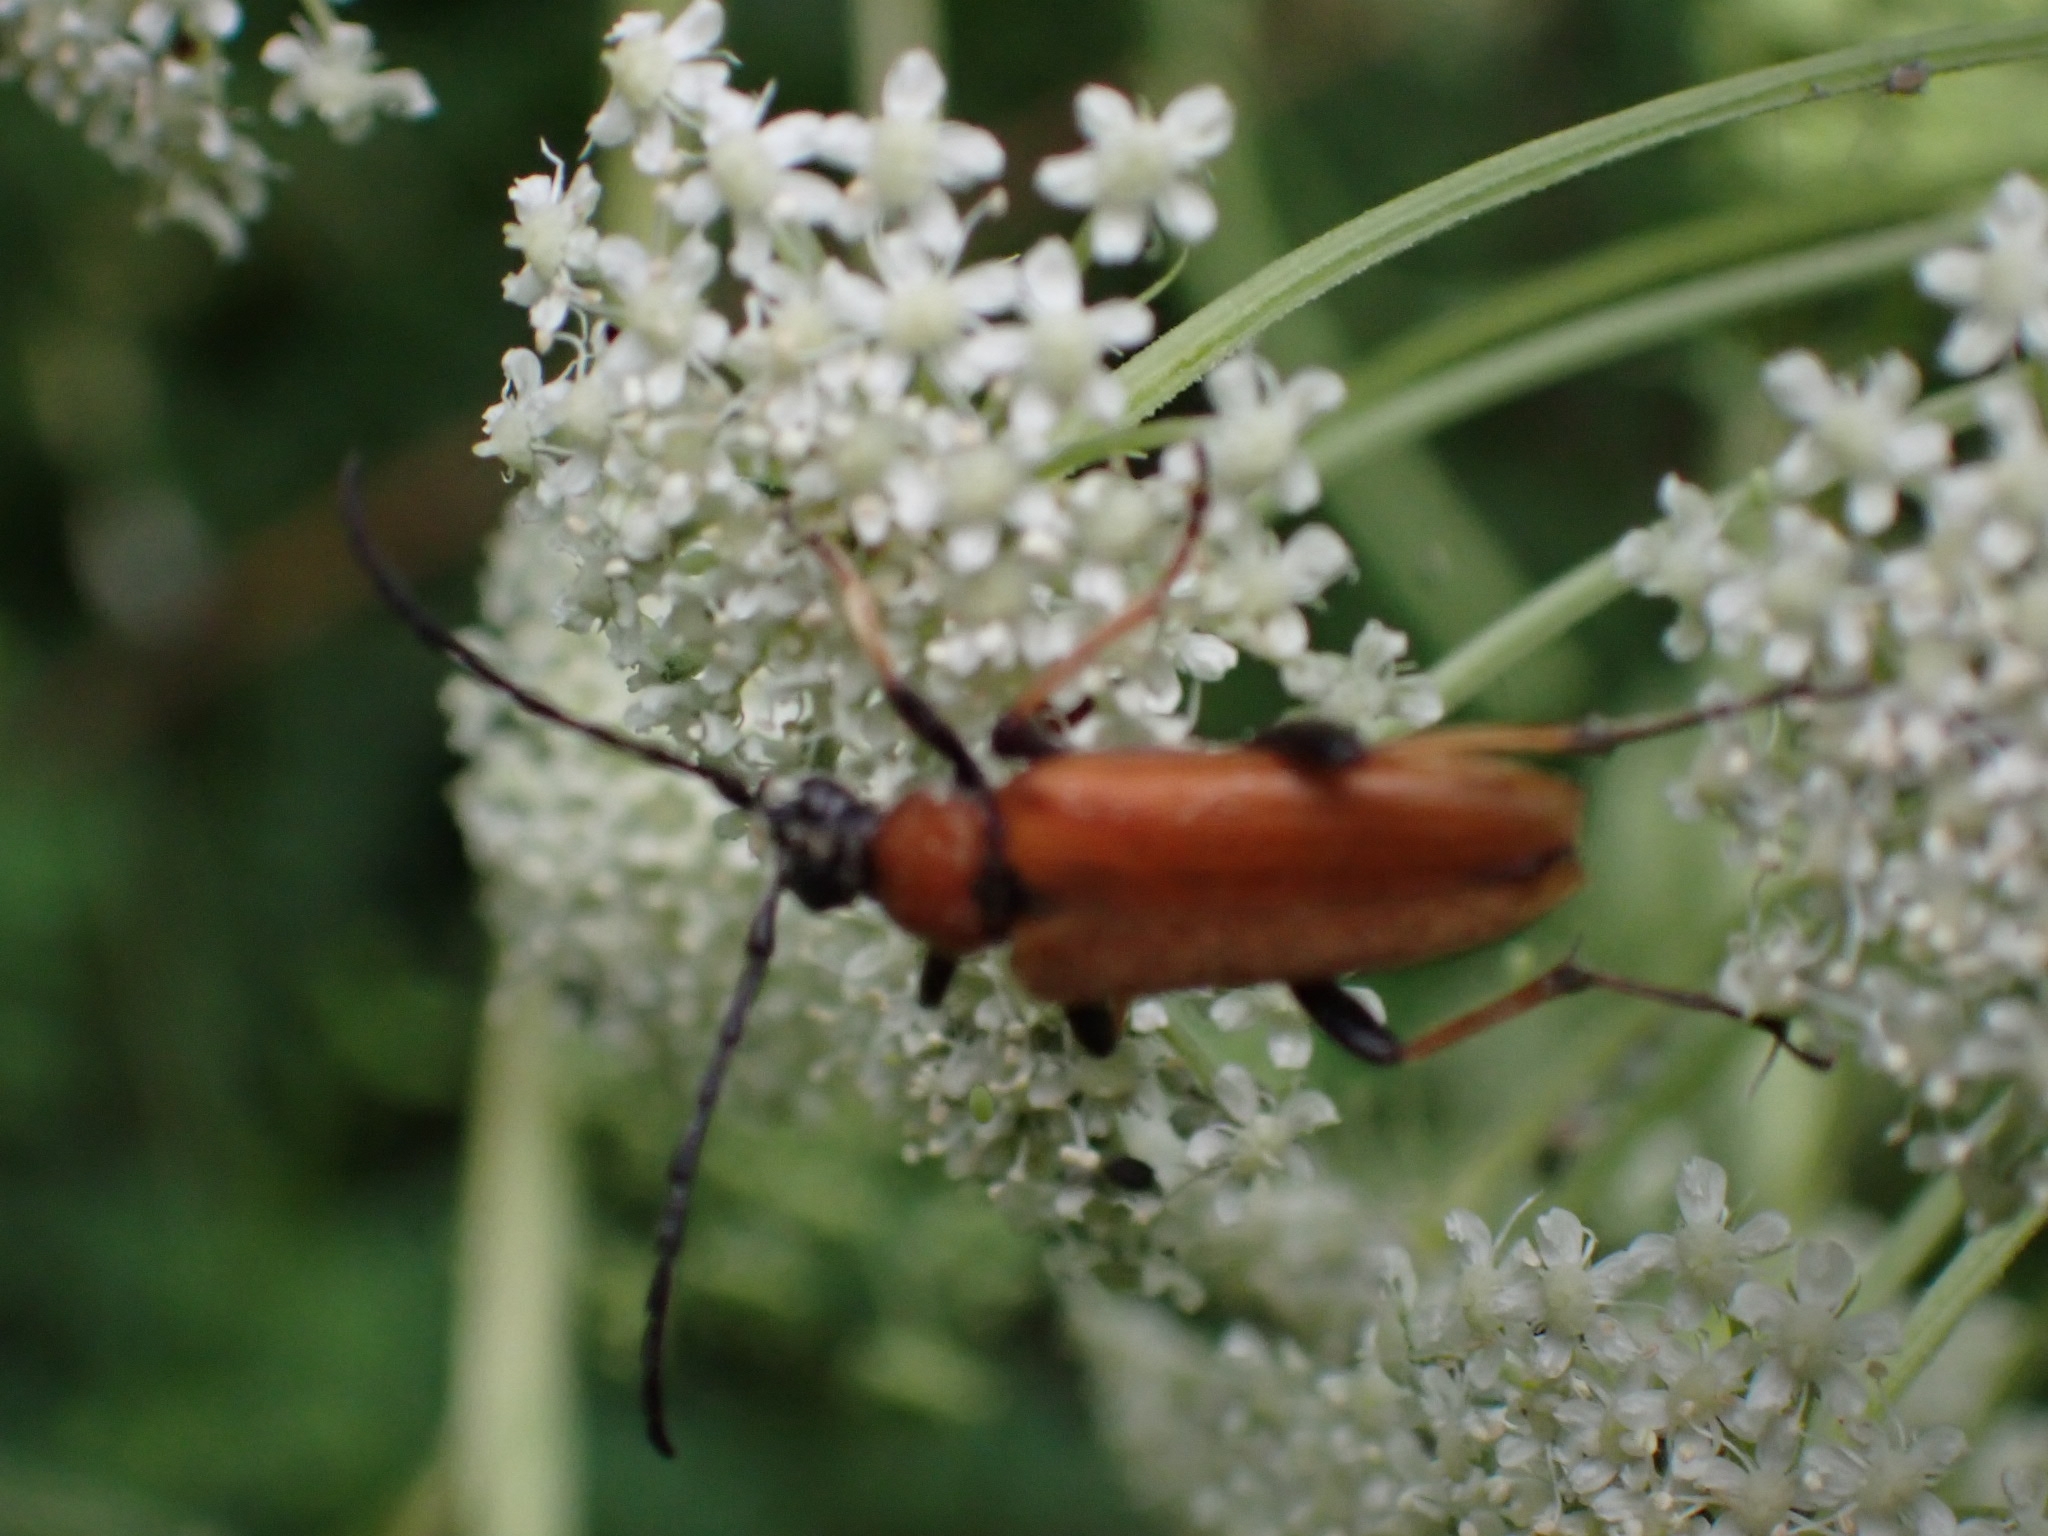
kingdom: Animalia
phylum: Arthropoda
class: Insecta
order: Coleoptera
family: Cerambycidae
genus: Stictoleptura
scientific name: Stictoleptura rubra
